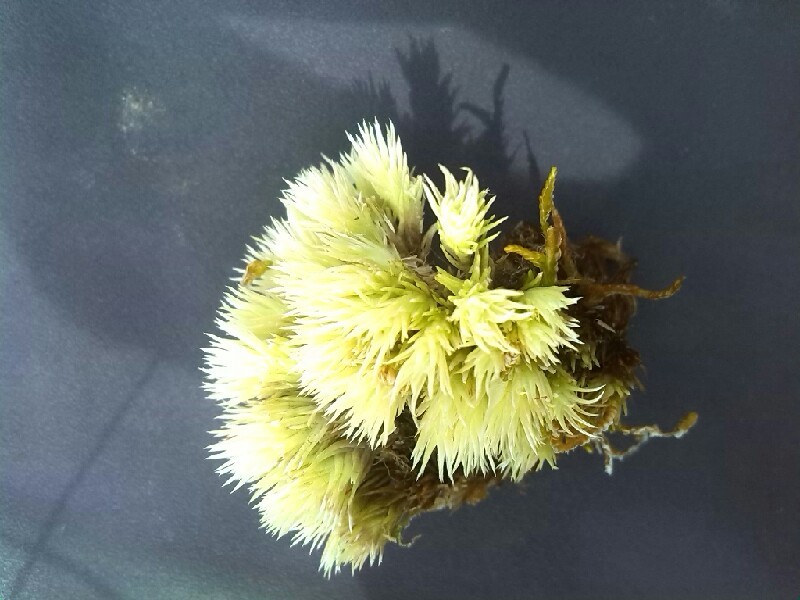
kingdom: Plantae
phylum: Bryophyta
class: Bryopsida
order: Dicranales
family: Leucobryaceae
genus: Leucobryum
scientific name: Leucobryum glaucum
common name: Large white-moss
